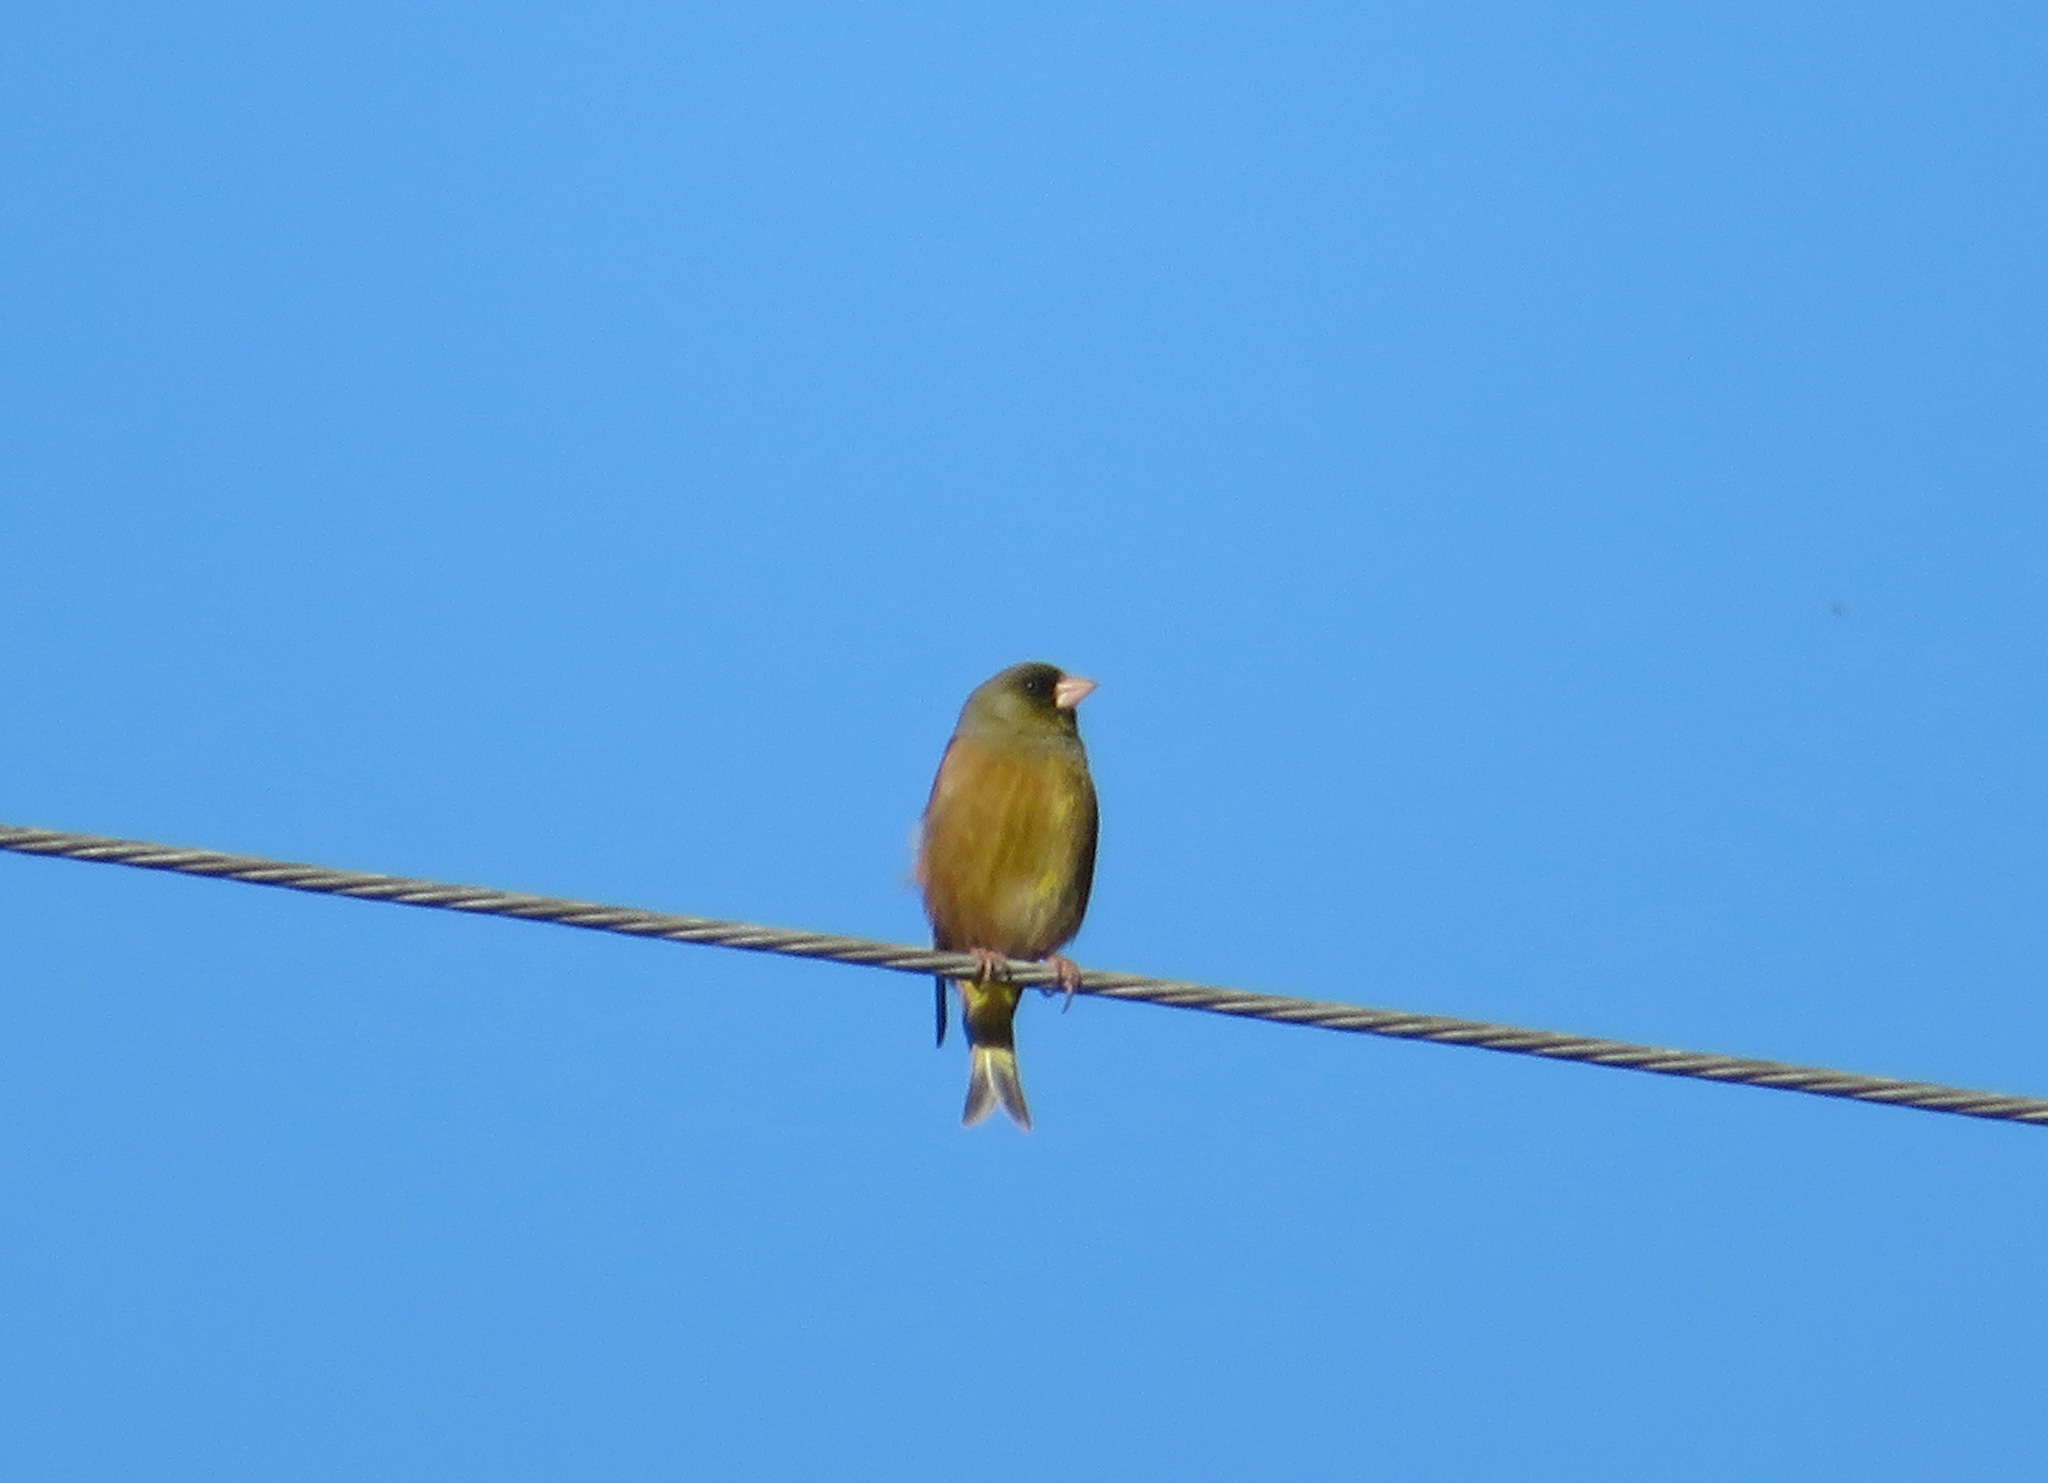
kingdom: Plantae
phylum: Tracheophyta
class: Liliopsida
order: Poales
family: Poaceae
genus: Chloris
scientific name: Chloris sinica
